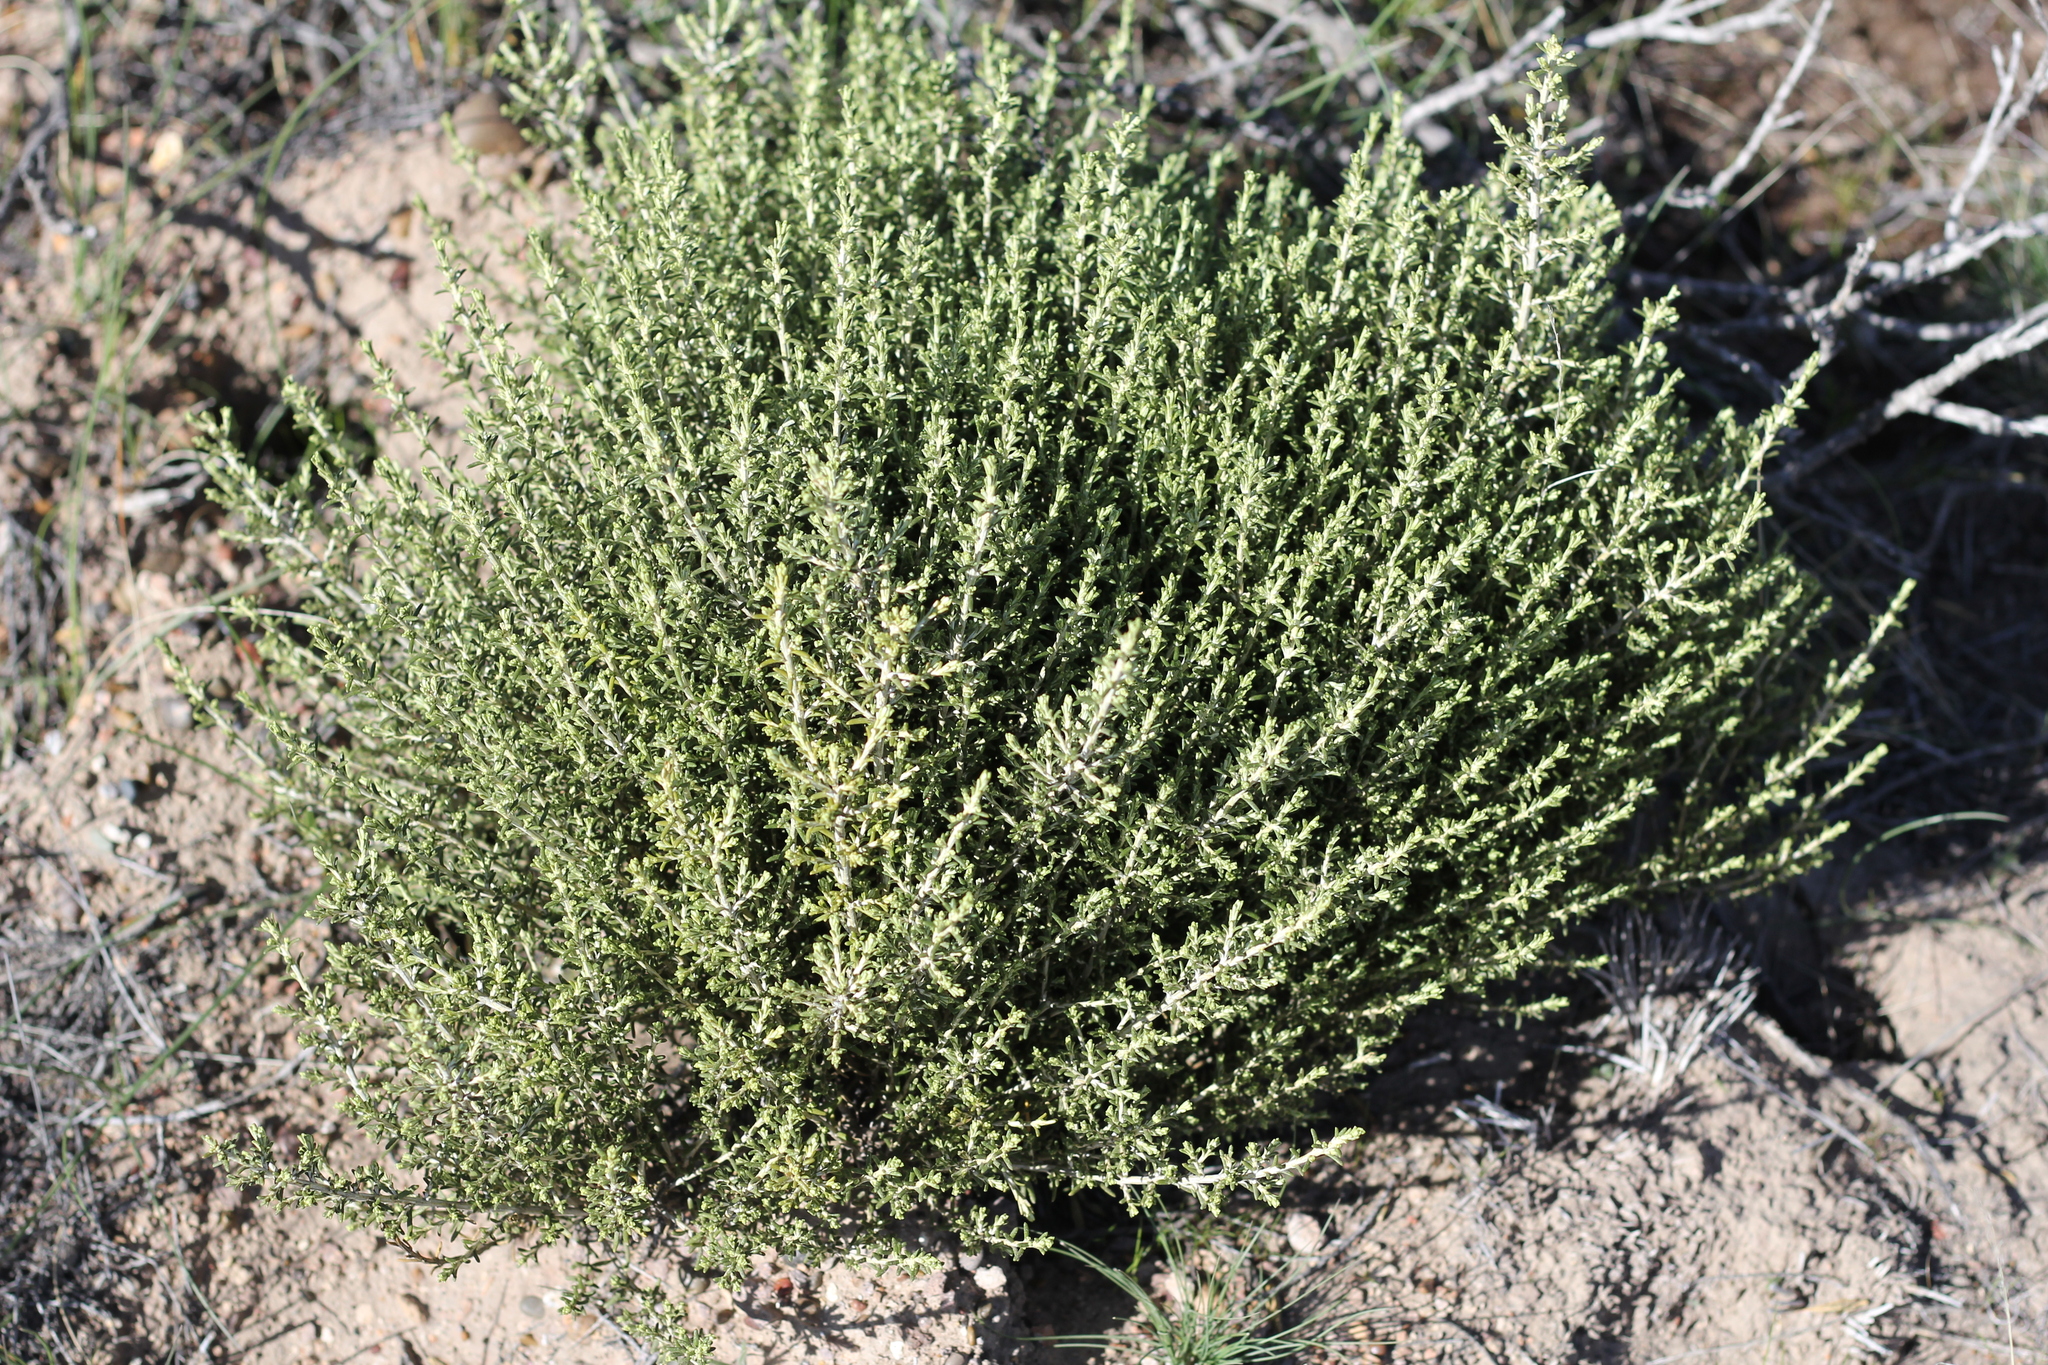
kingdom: Plantae
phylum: Tracheophyta
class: Magnoliopsida
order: Asterales
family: Asteraceae
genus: Nardophyllum
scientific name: Nardophyllum chiliotrichoides
